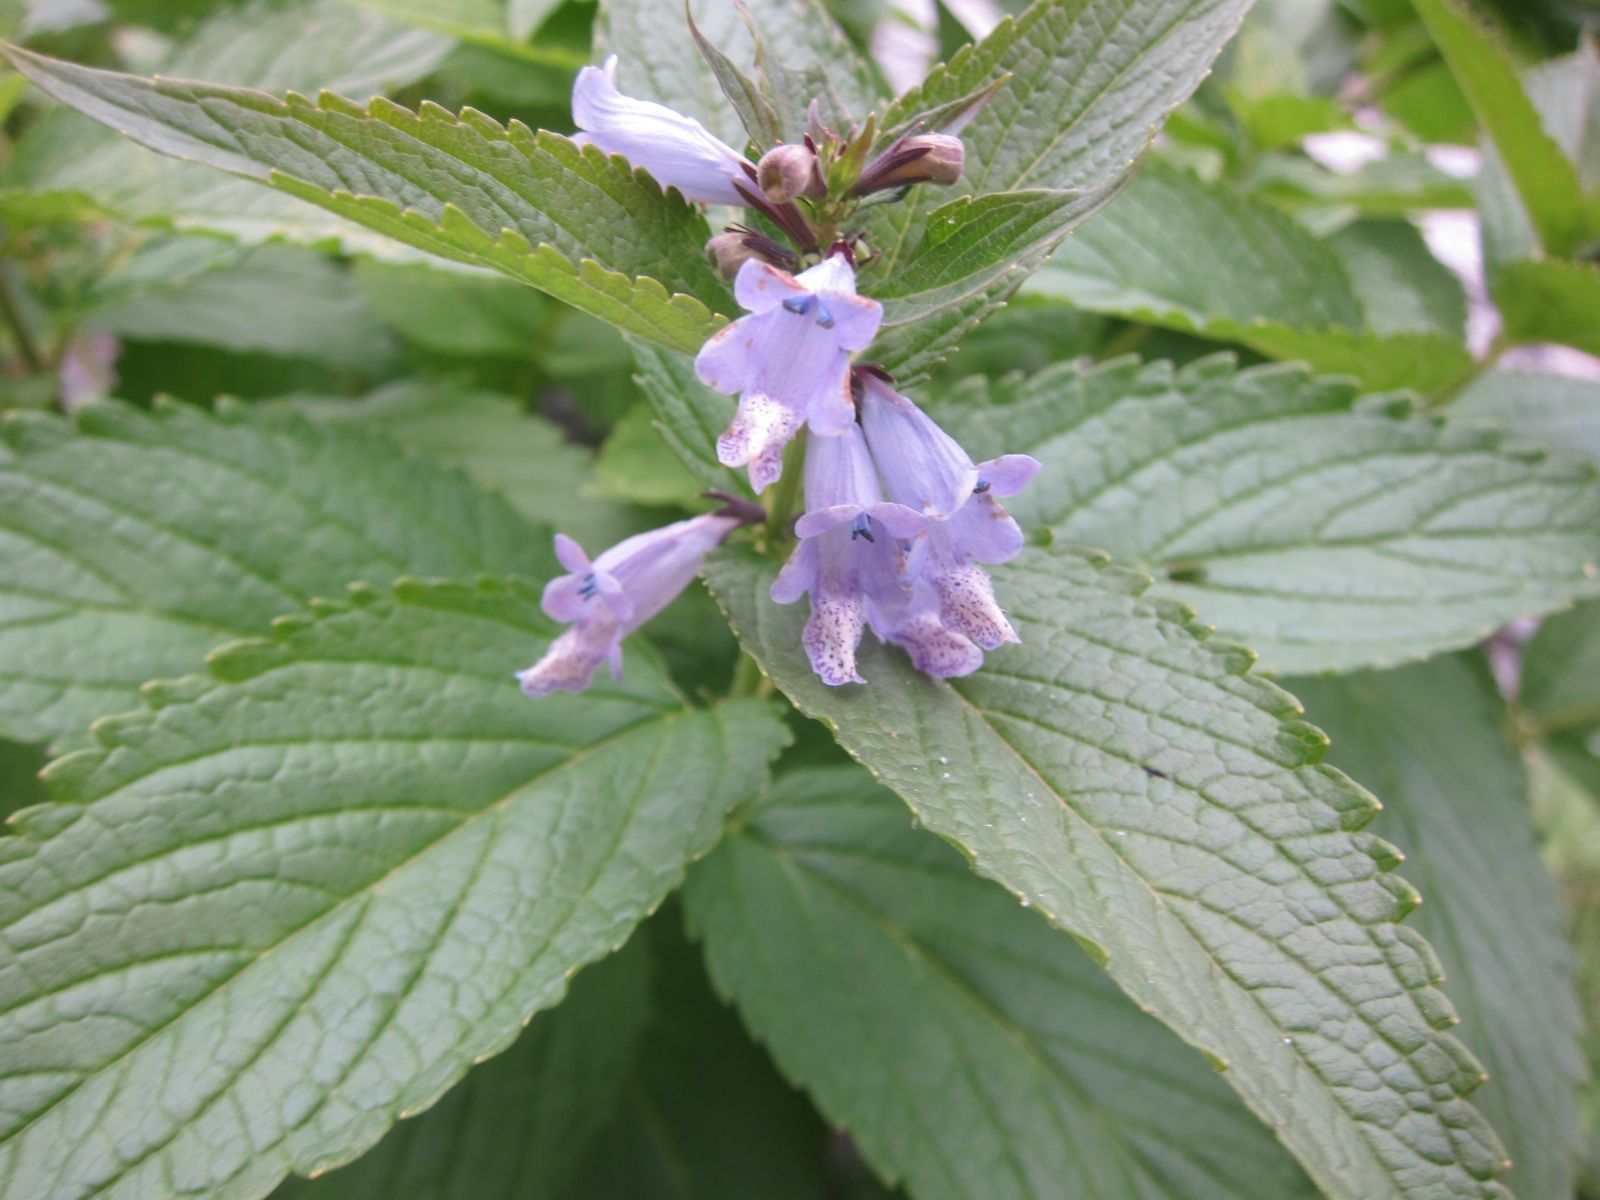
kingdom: Plantae
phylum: Tracheophyta
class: Magnoliopsida
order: Lamiales
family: Lamiaceae
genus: Nepeta
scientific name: Nepeta subsessilis
